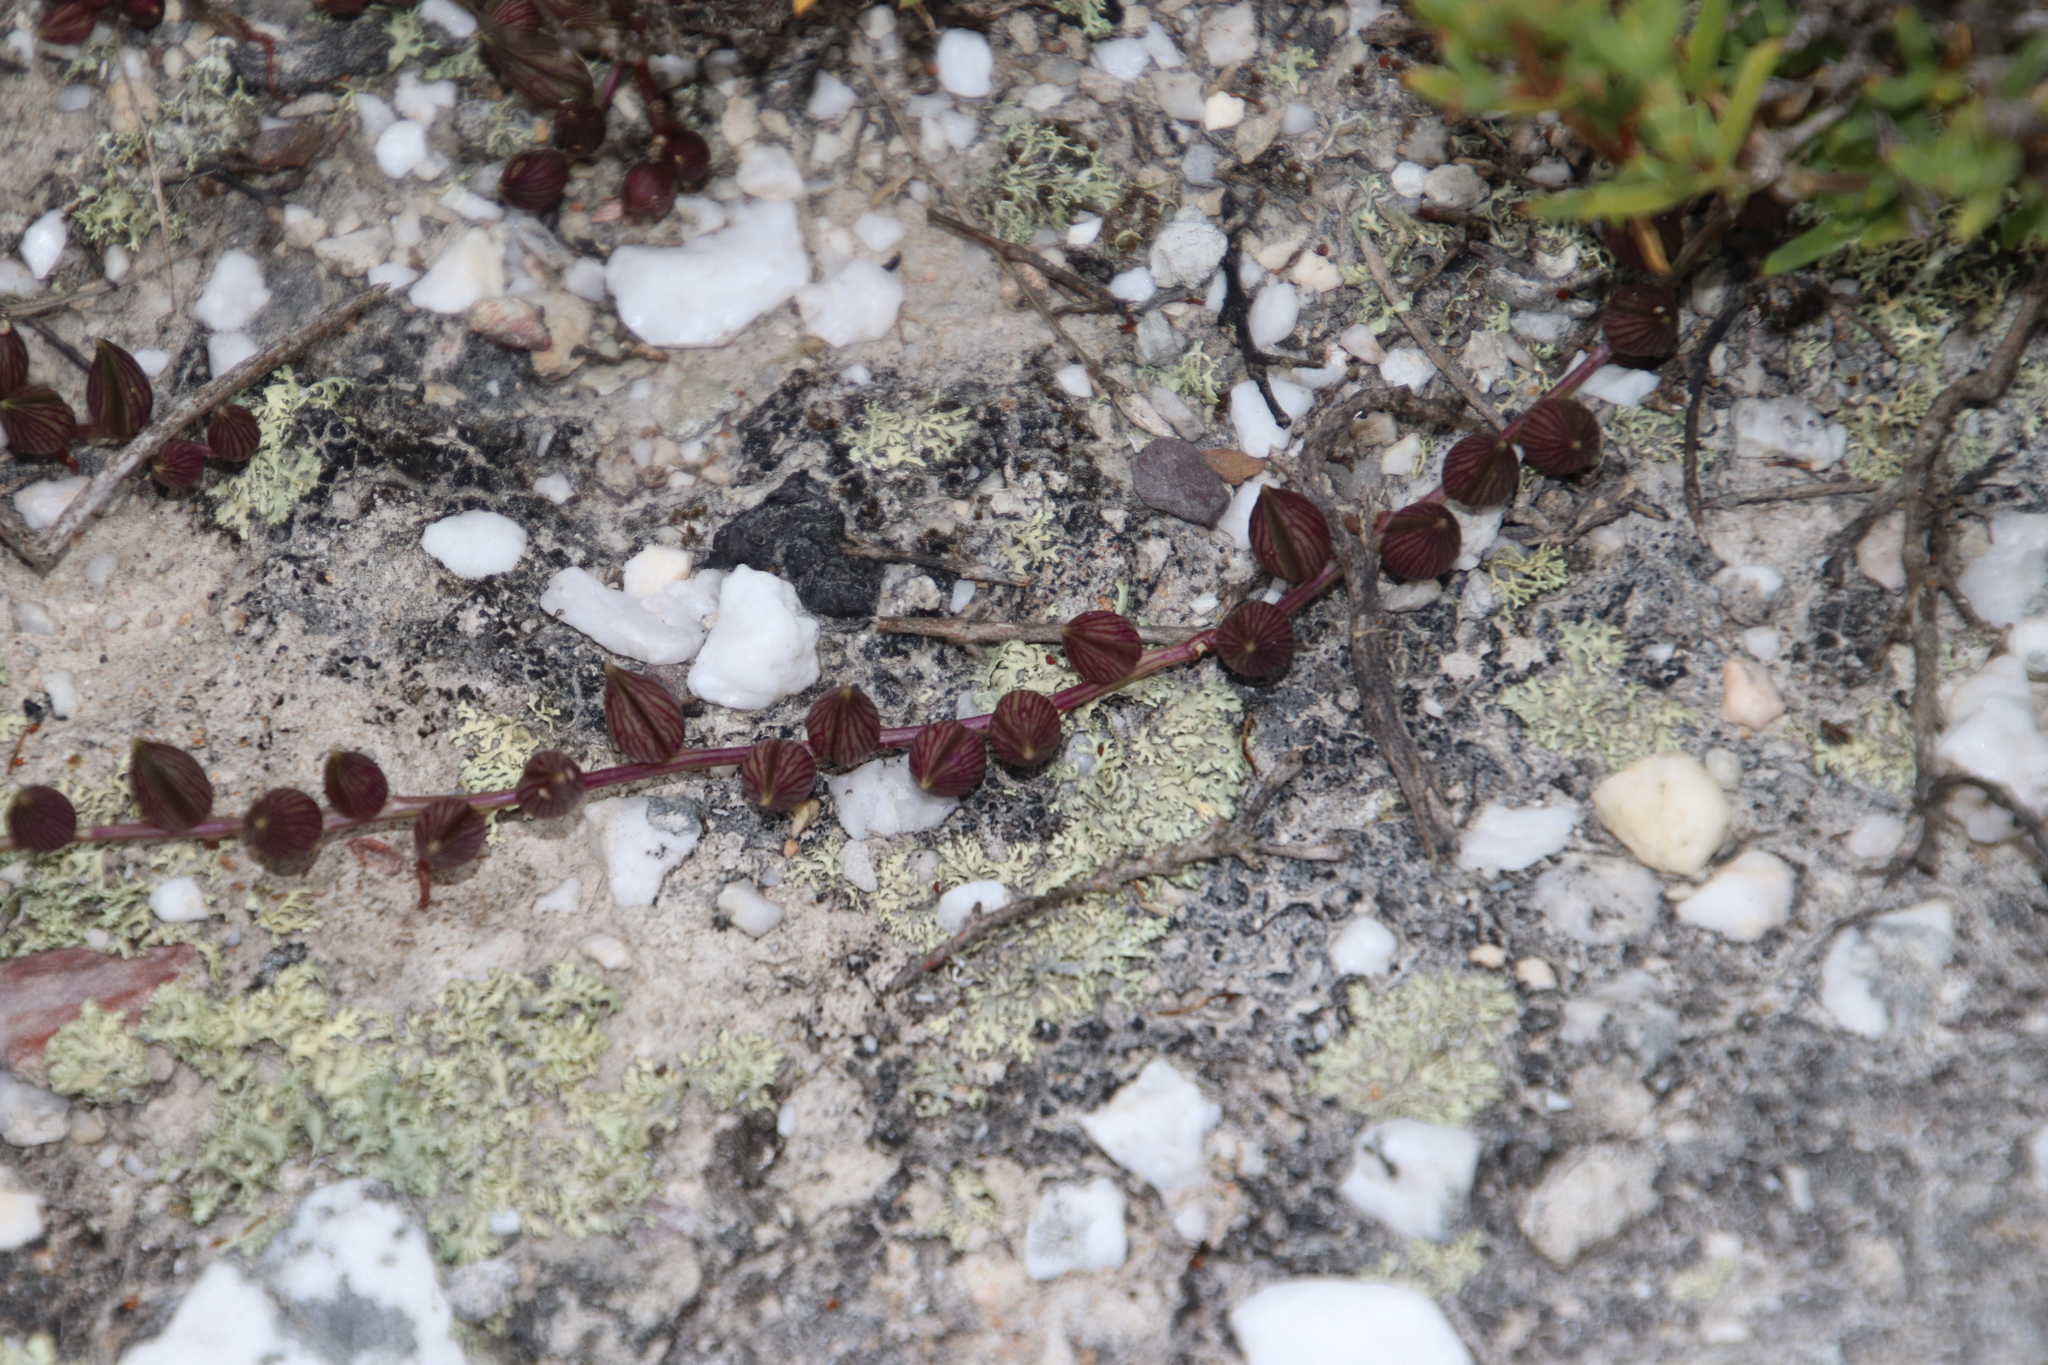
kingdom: Plantae
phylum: Tracheophyta
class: Magnoliopsida
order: Asterales
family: Asteraceae
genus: Curio
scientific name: Curio radicans
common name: Creeping-berry
